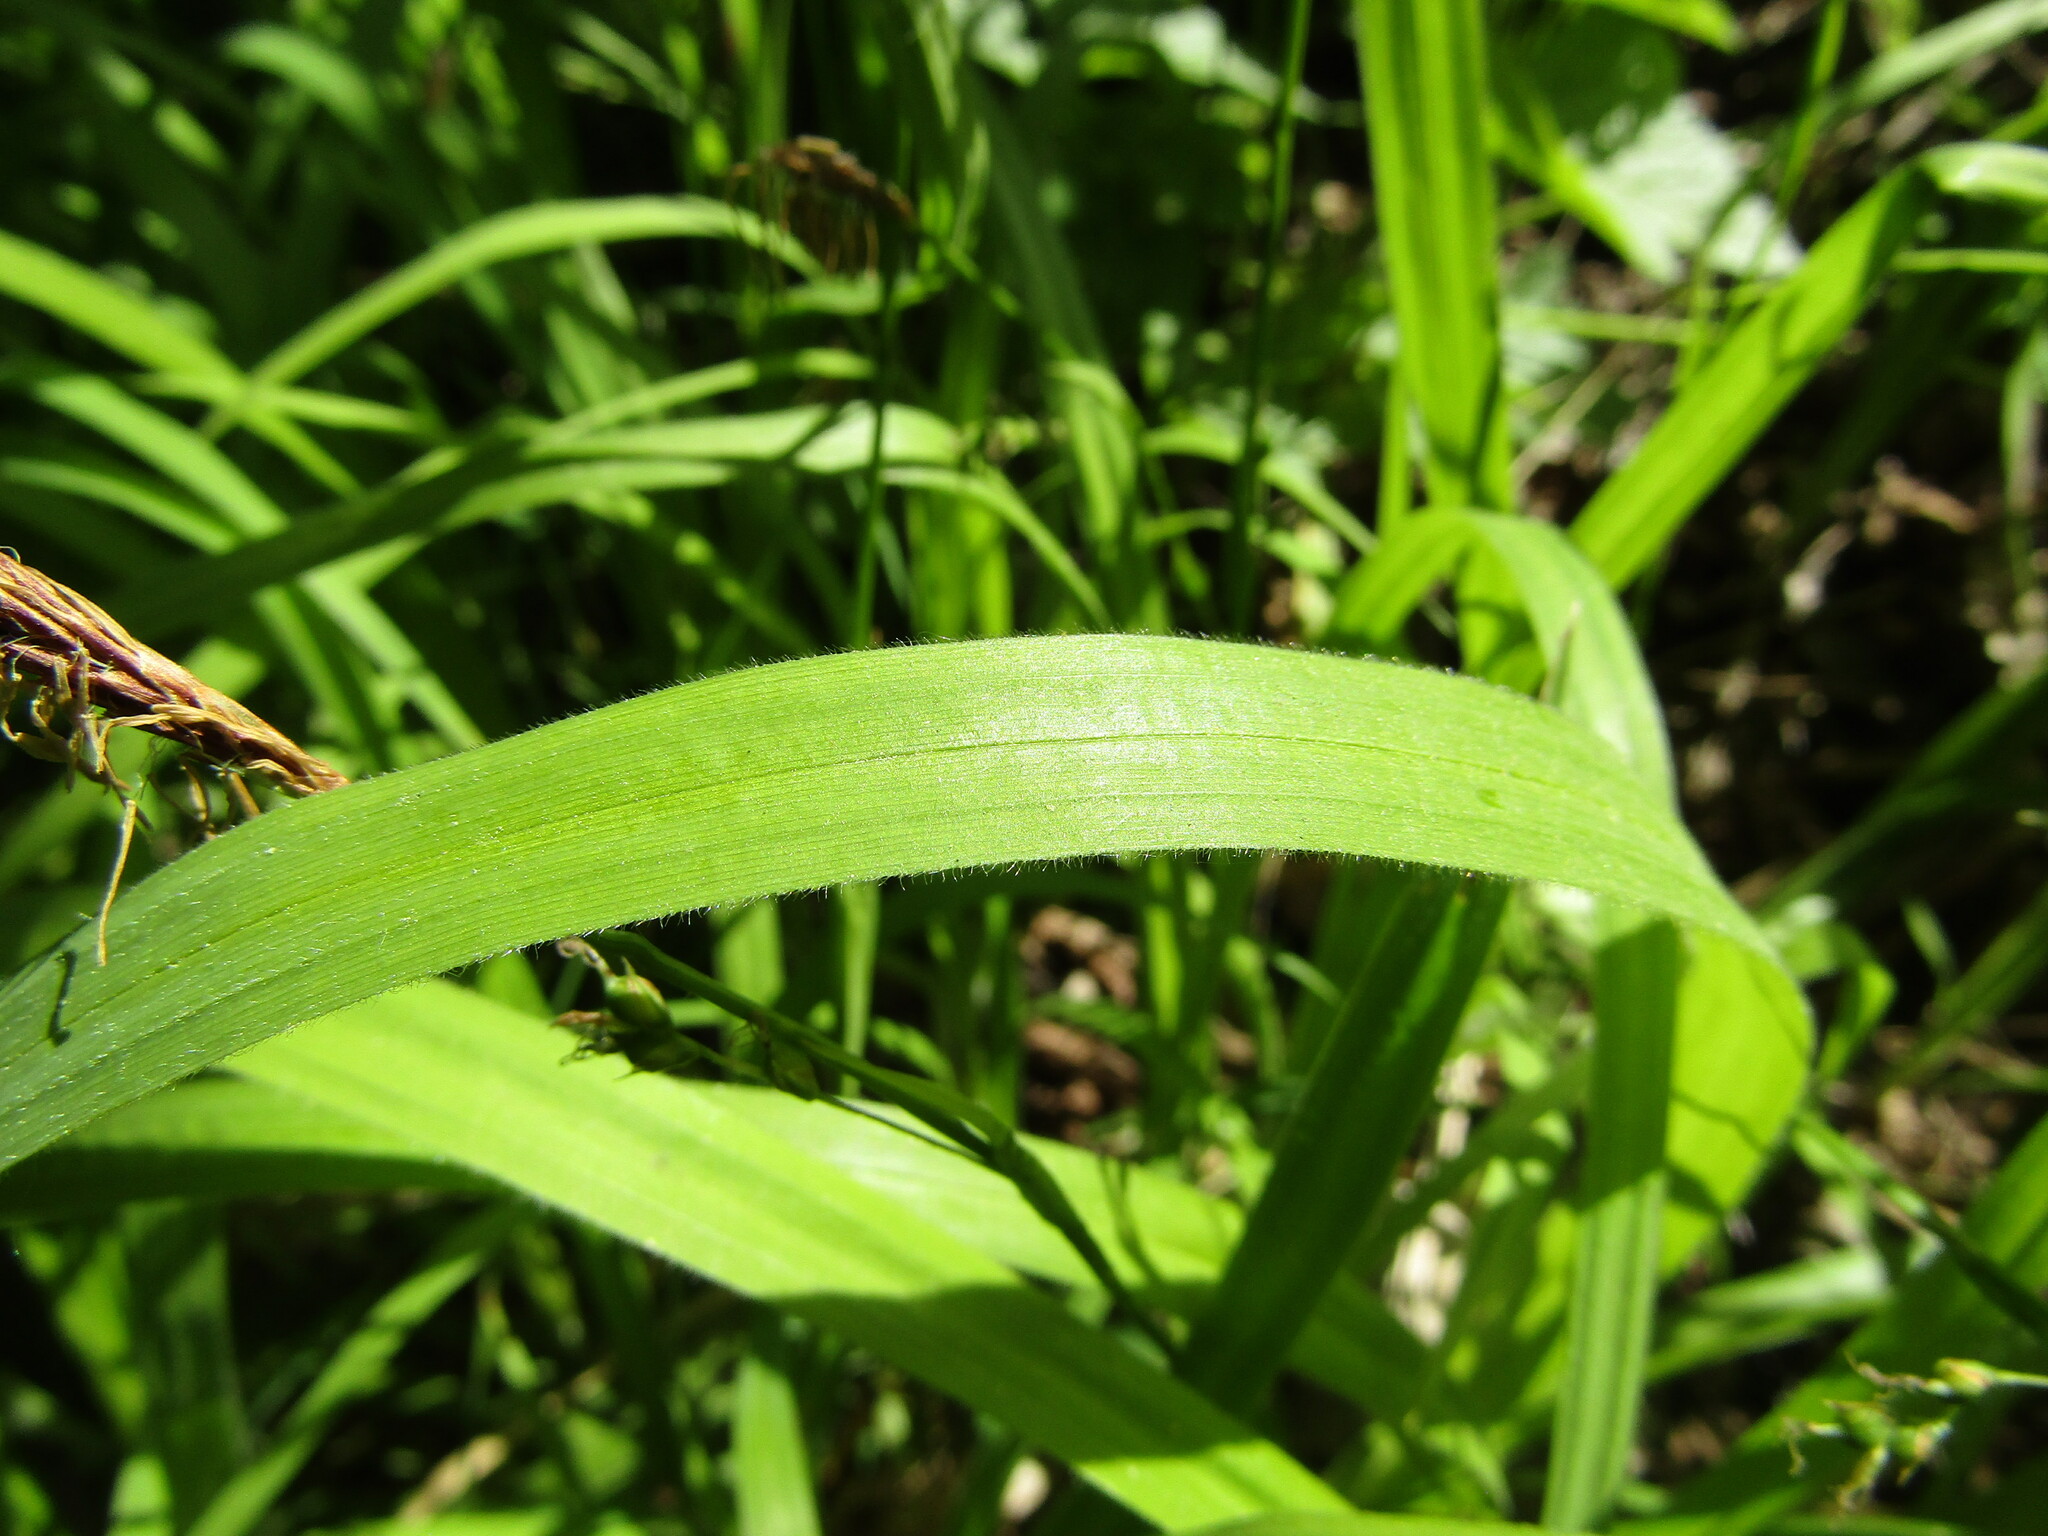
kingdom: Plantae
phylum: Tracheophyta
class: Liliopsida
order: Poales
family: Cyperaceae
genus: Carex
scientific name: Carex pilosa
